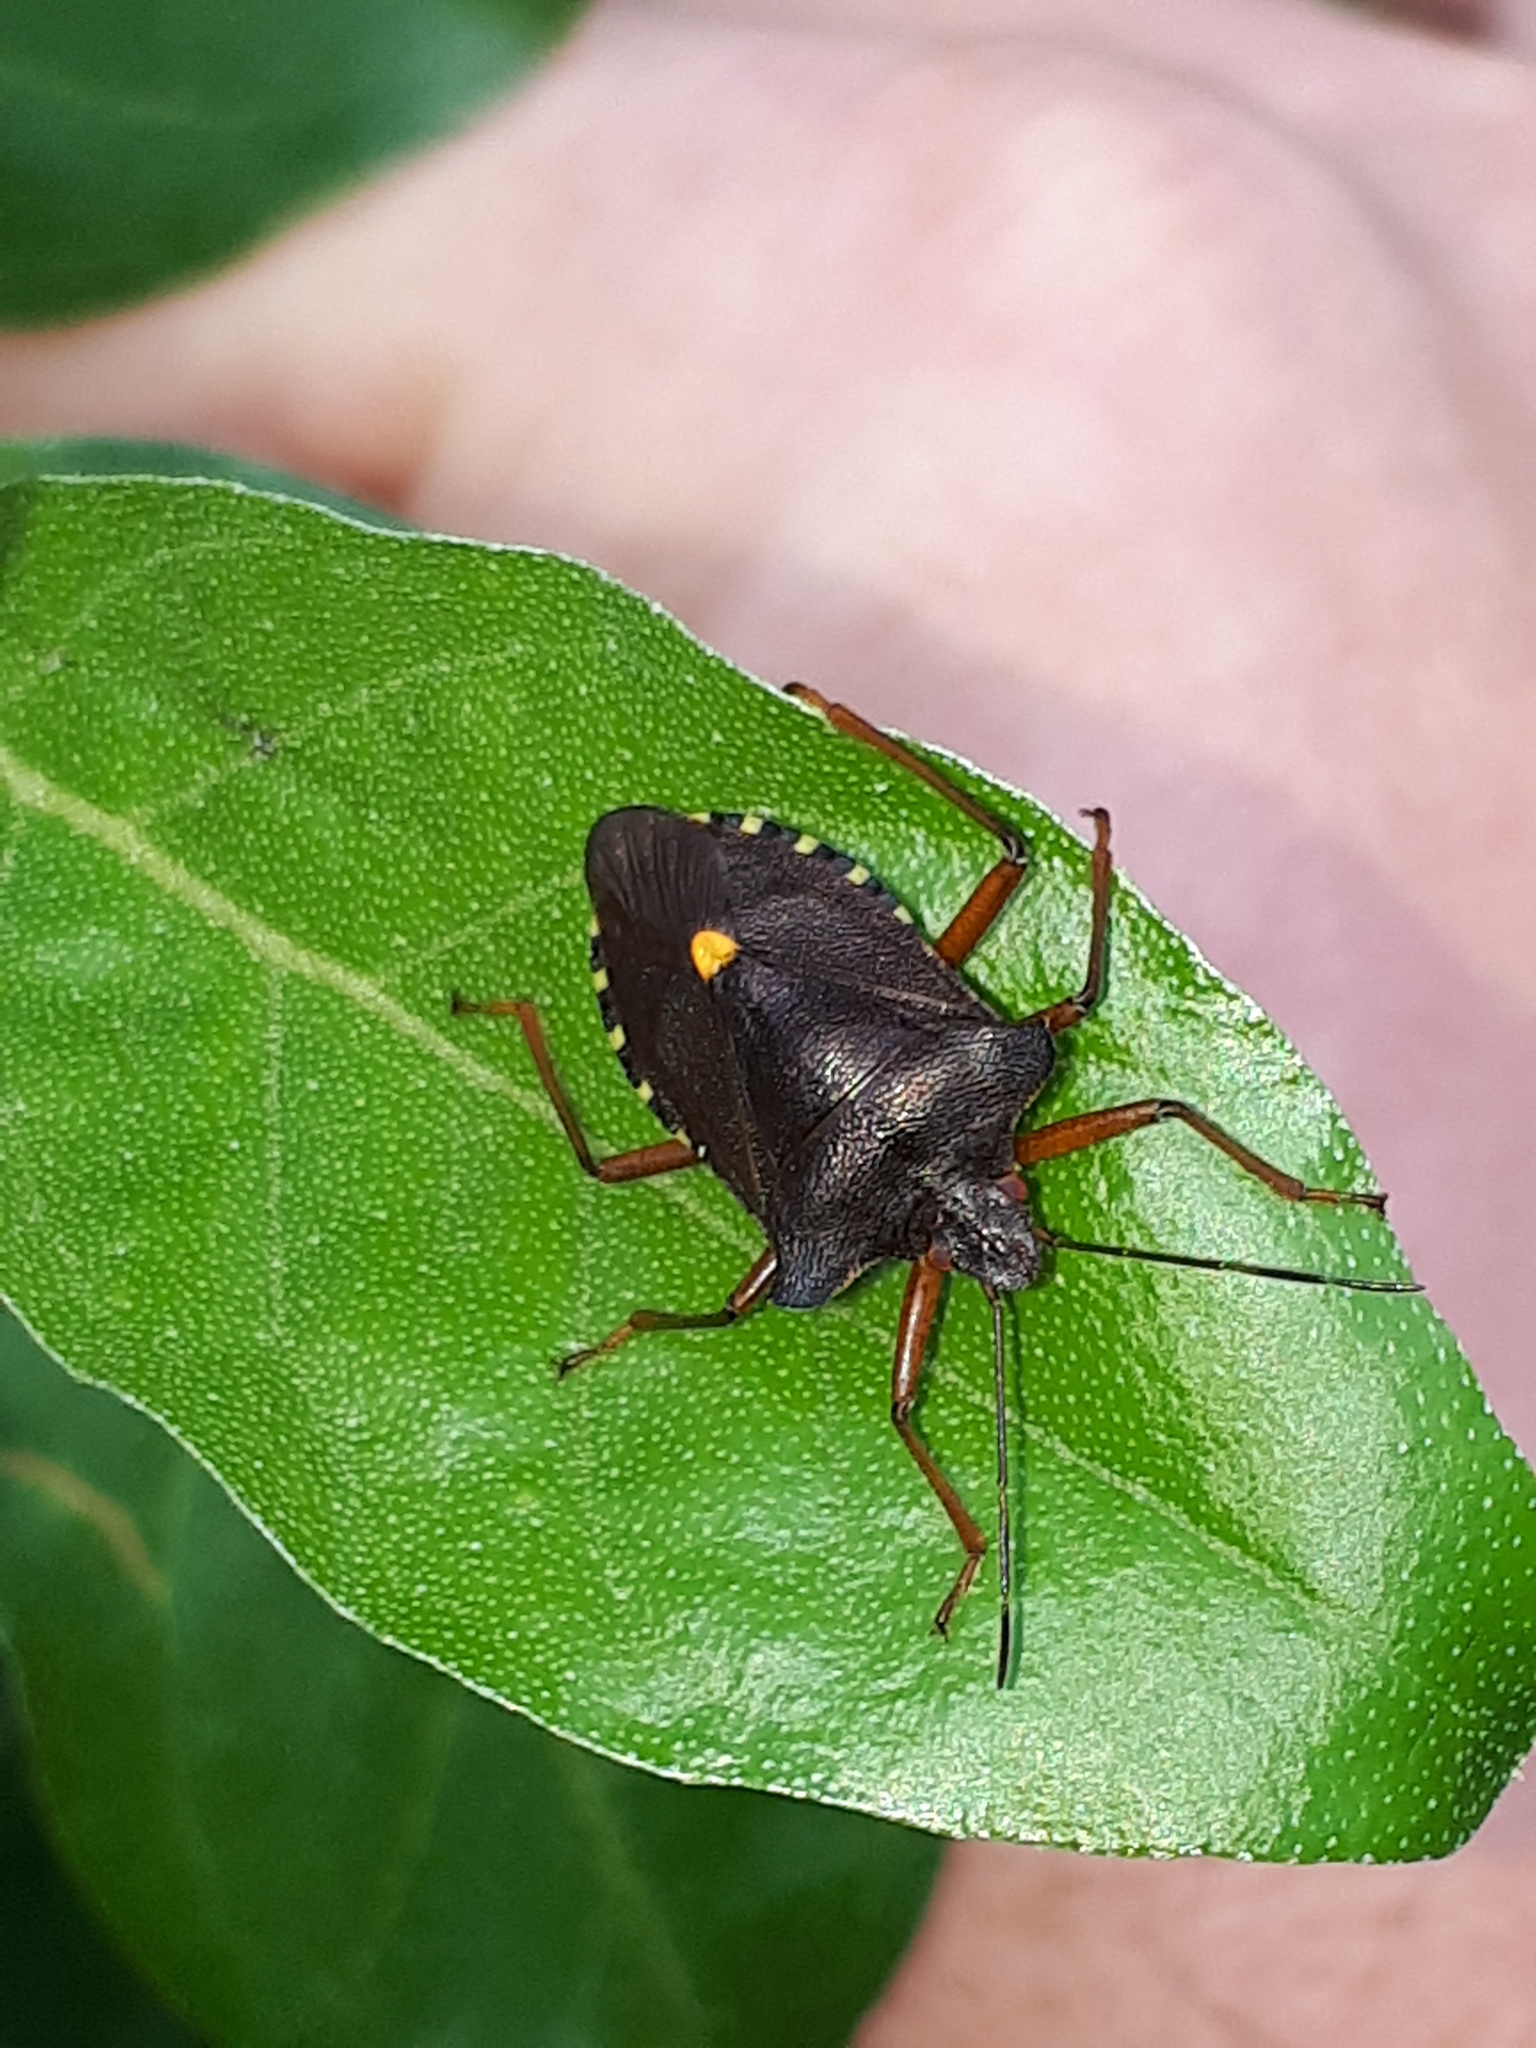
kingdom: Animalia
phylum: Arthropoda
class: Insecta
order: Hemiptera
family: Pentatomidae
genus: Pentatoma
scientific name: Pentatoma rufipes
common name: Forest bug
